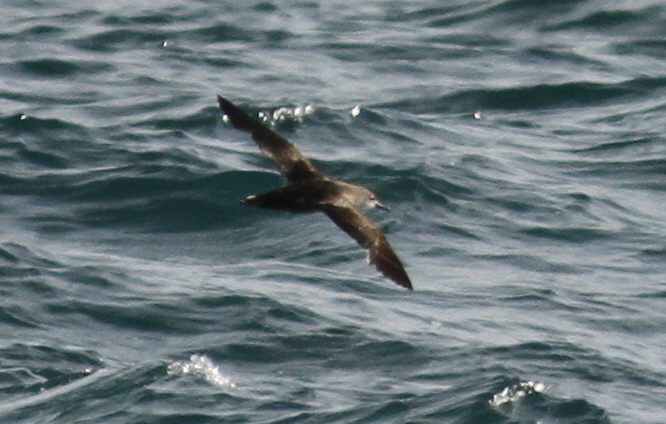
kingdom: Animalia
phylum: Chordata
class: Aves
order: Procellariiformes
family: Procellariidae
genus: Puffinus
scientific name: Puffinus mauretanicus
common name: Balearic shearwater
